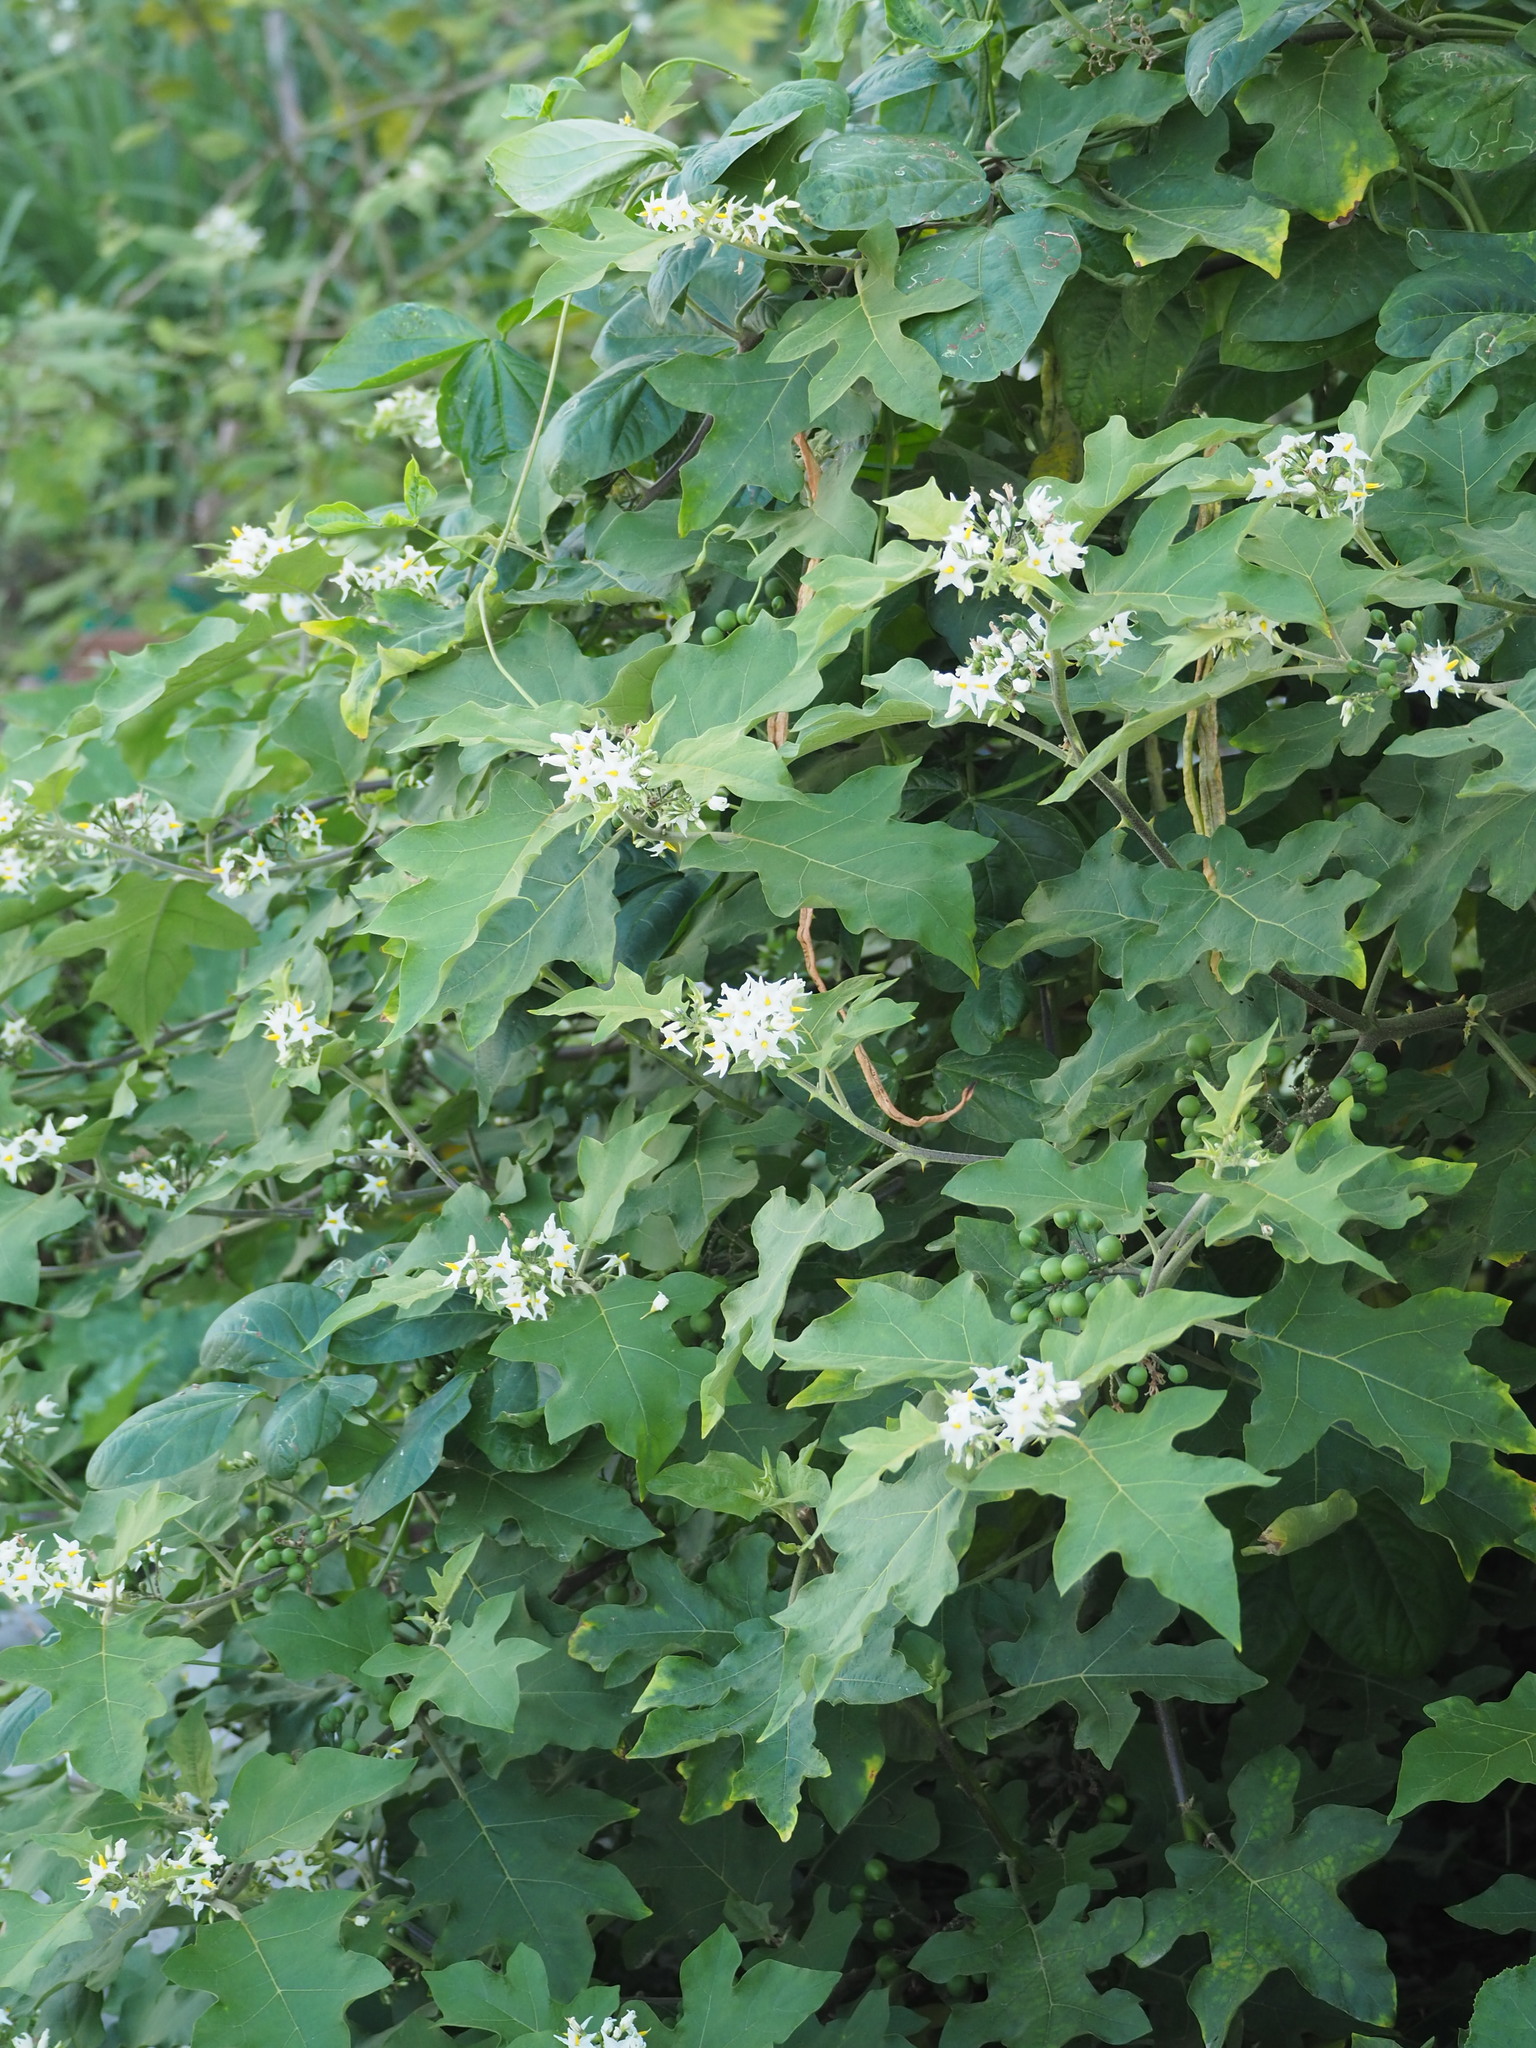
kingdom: Plantae
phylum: Tracheophyta
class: Magnoliopsida
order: Solanales
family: Solanaceae
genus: Solanum
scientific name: Solanum torvum
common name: Turkey berry
